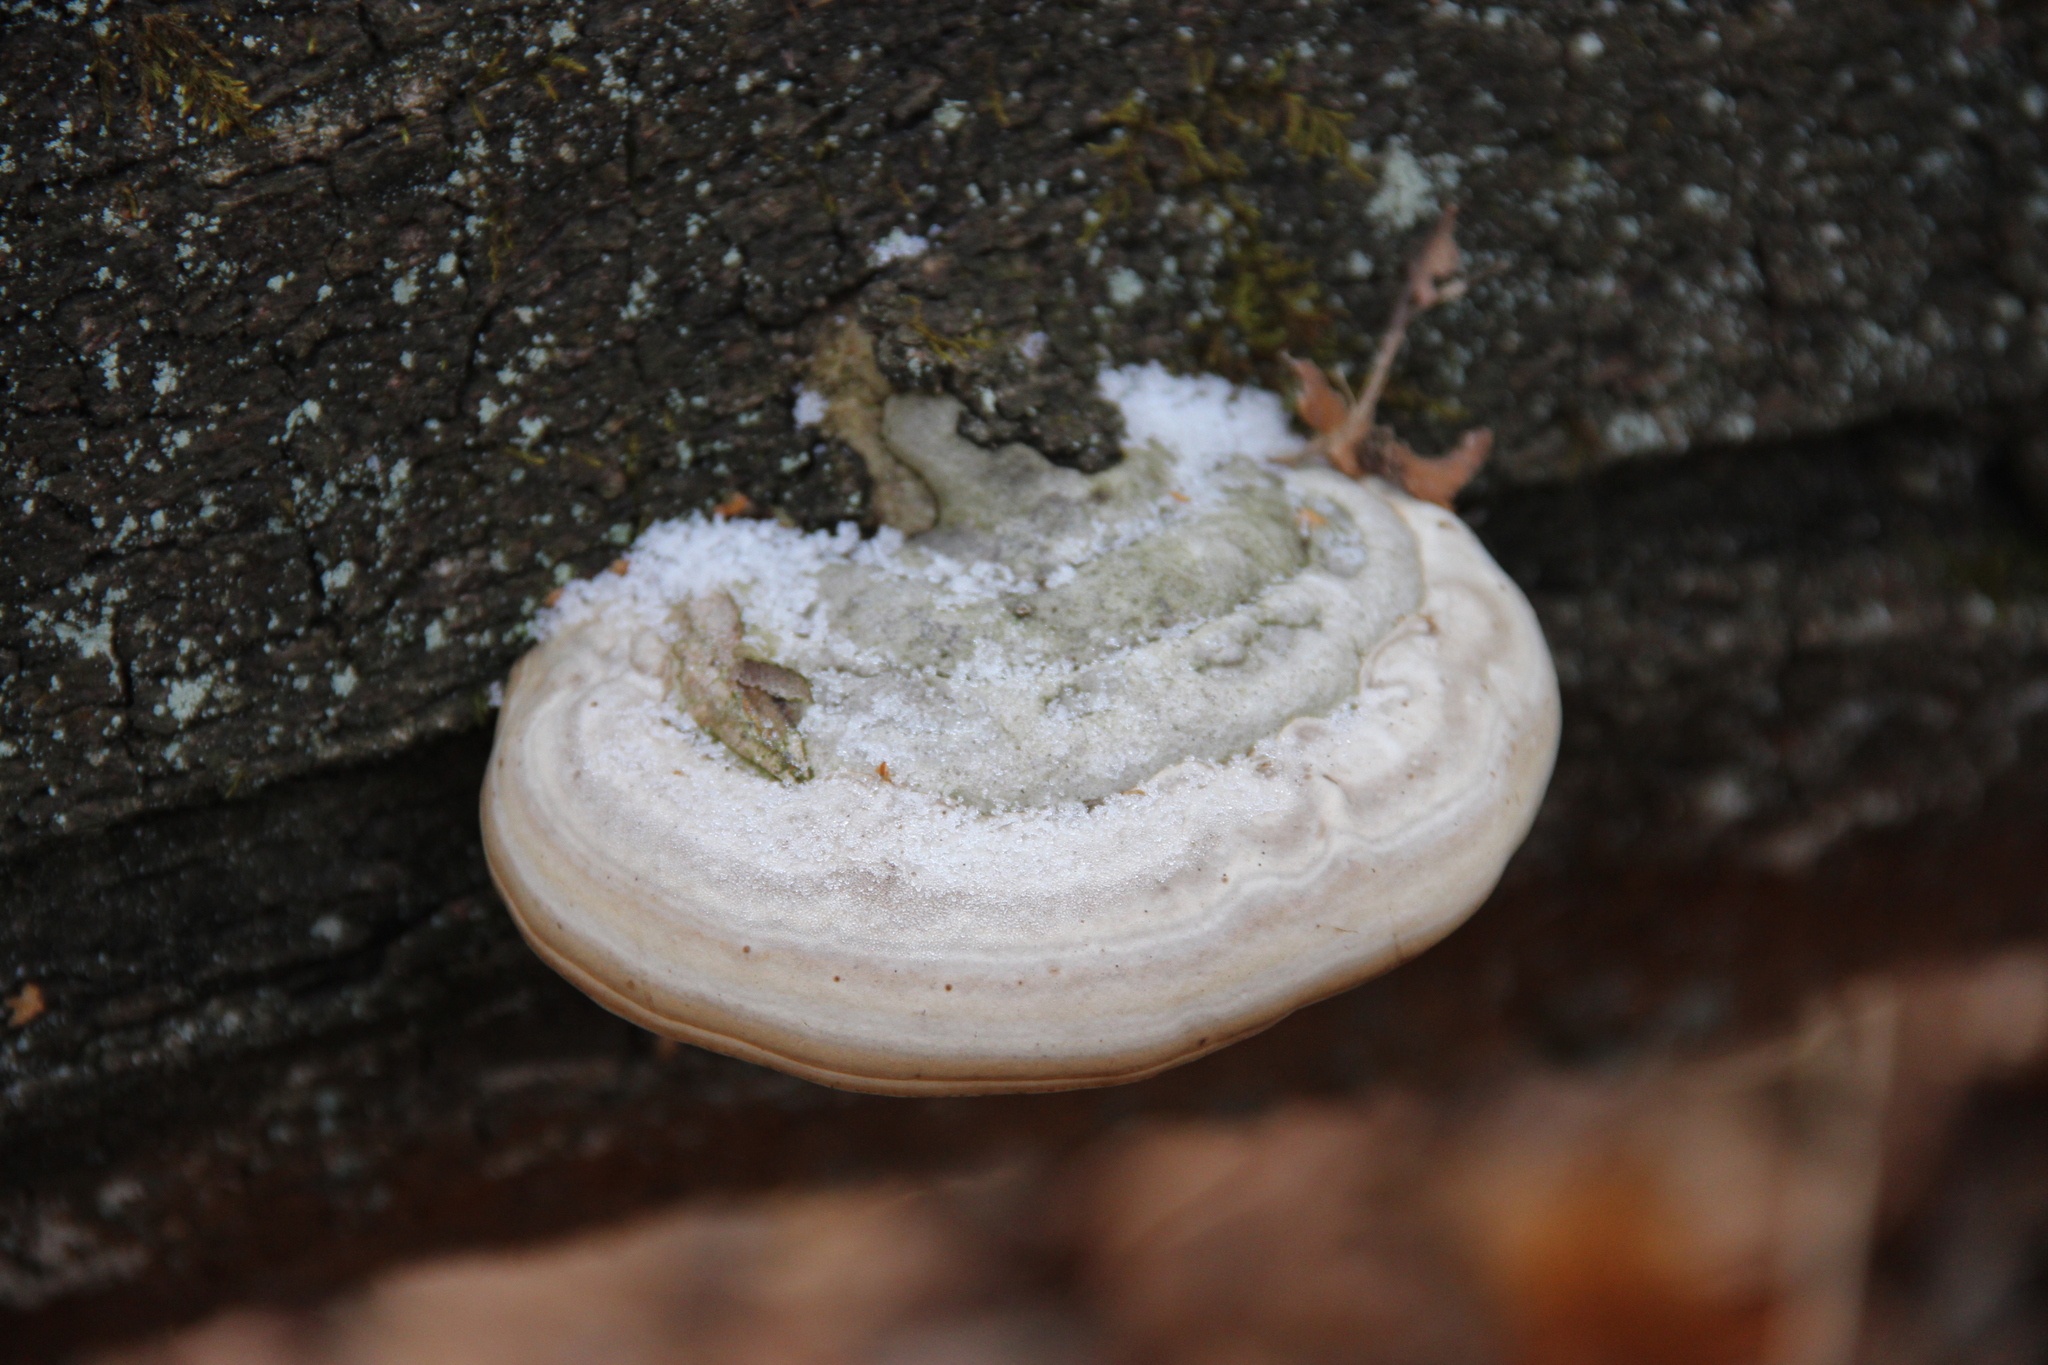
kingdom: Fungi
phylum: Basidiomycota
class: Agaricomycetes
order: Polyporales
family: Polyporaceae
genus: Fomes
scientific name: Fomes fomentarius
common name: Hoof fungus
